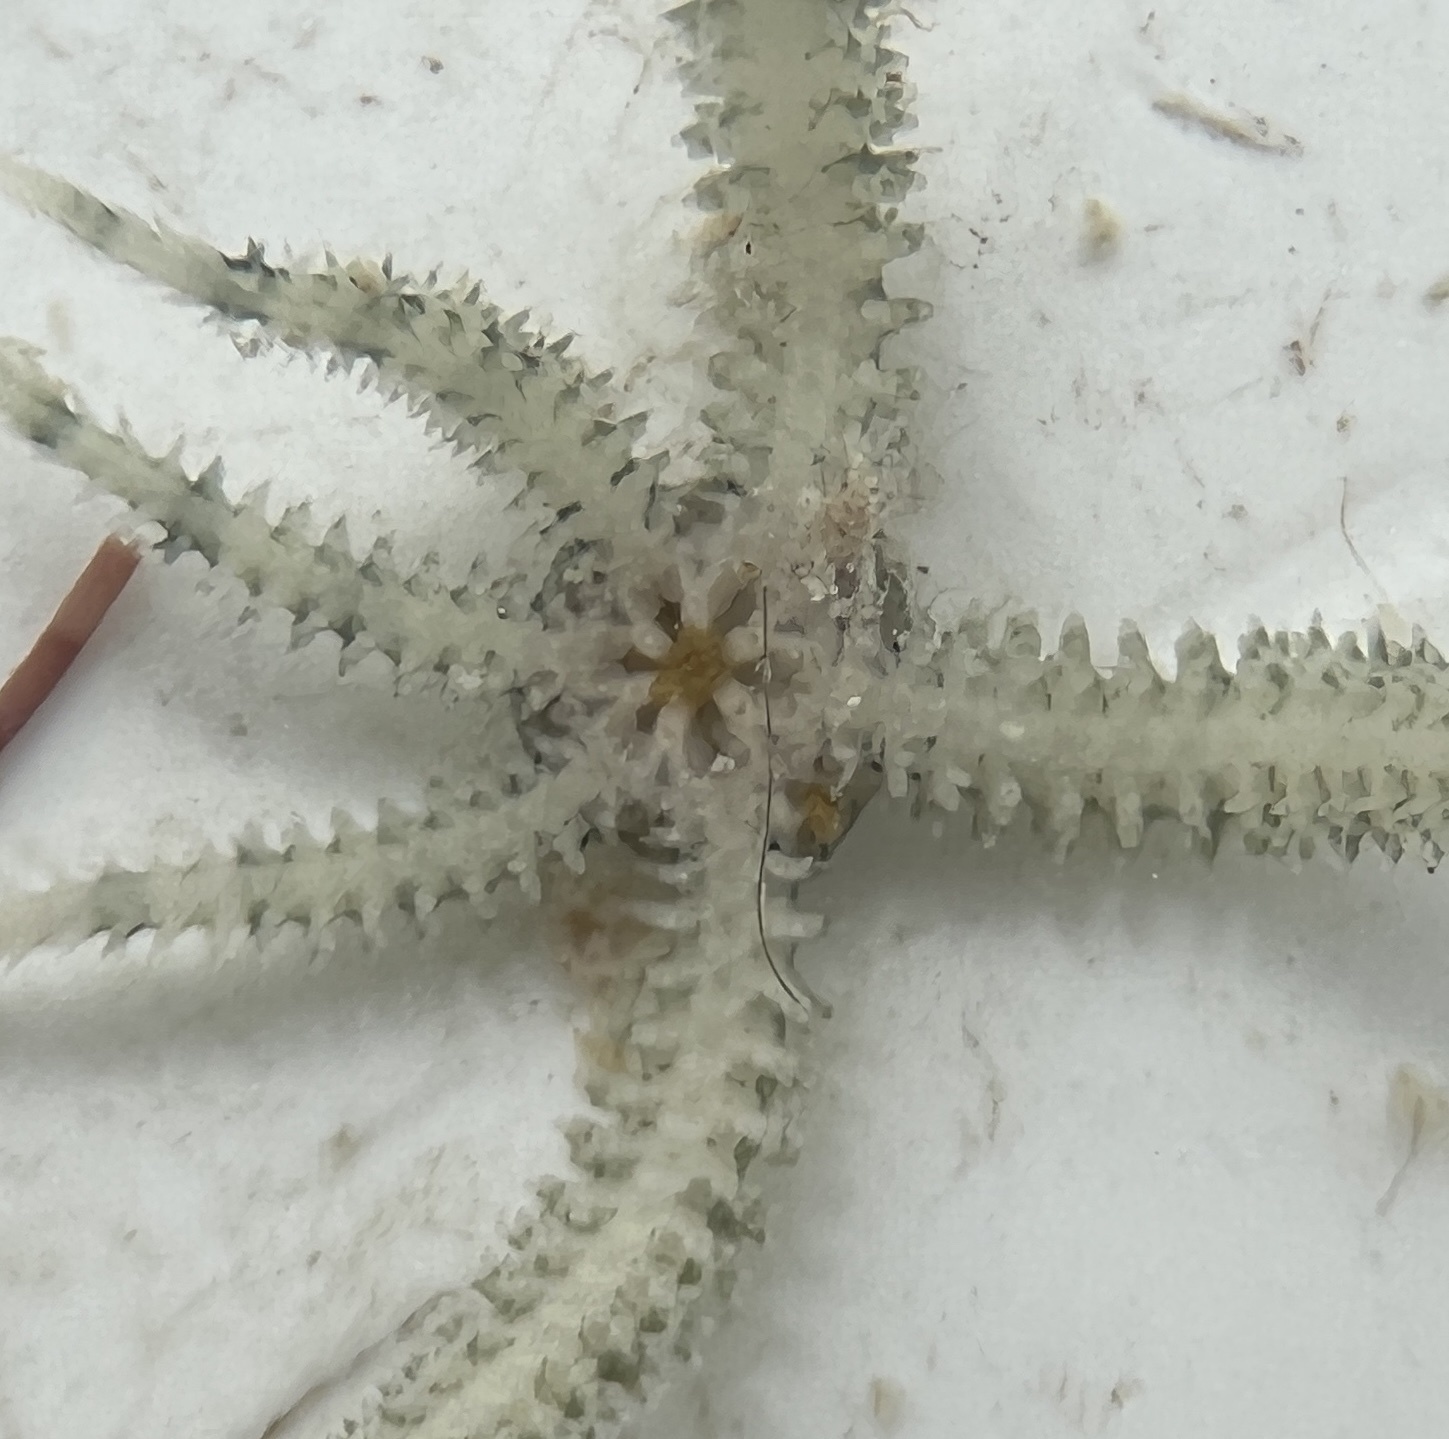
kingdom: Animalia
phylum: Echinodermata
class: Ophiuroidea
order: Amphilepidida
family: Ophiactidae
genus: Ophiactis
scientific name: Ophiactis savignyi
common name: Savigny's brittle star
